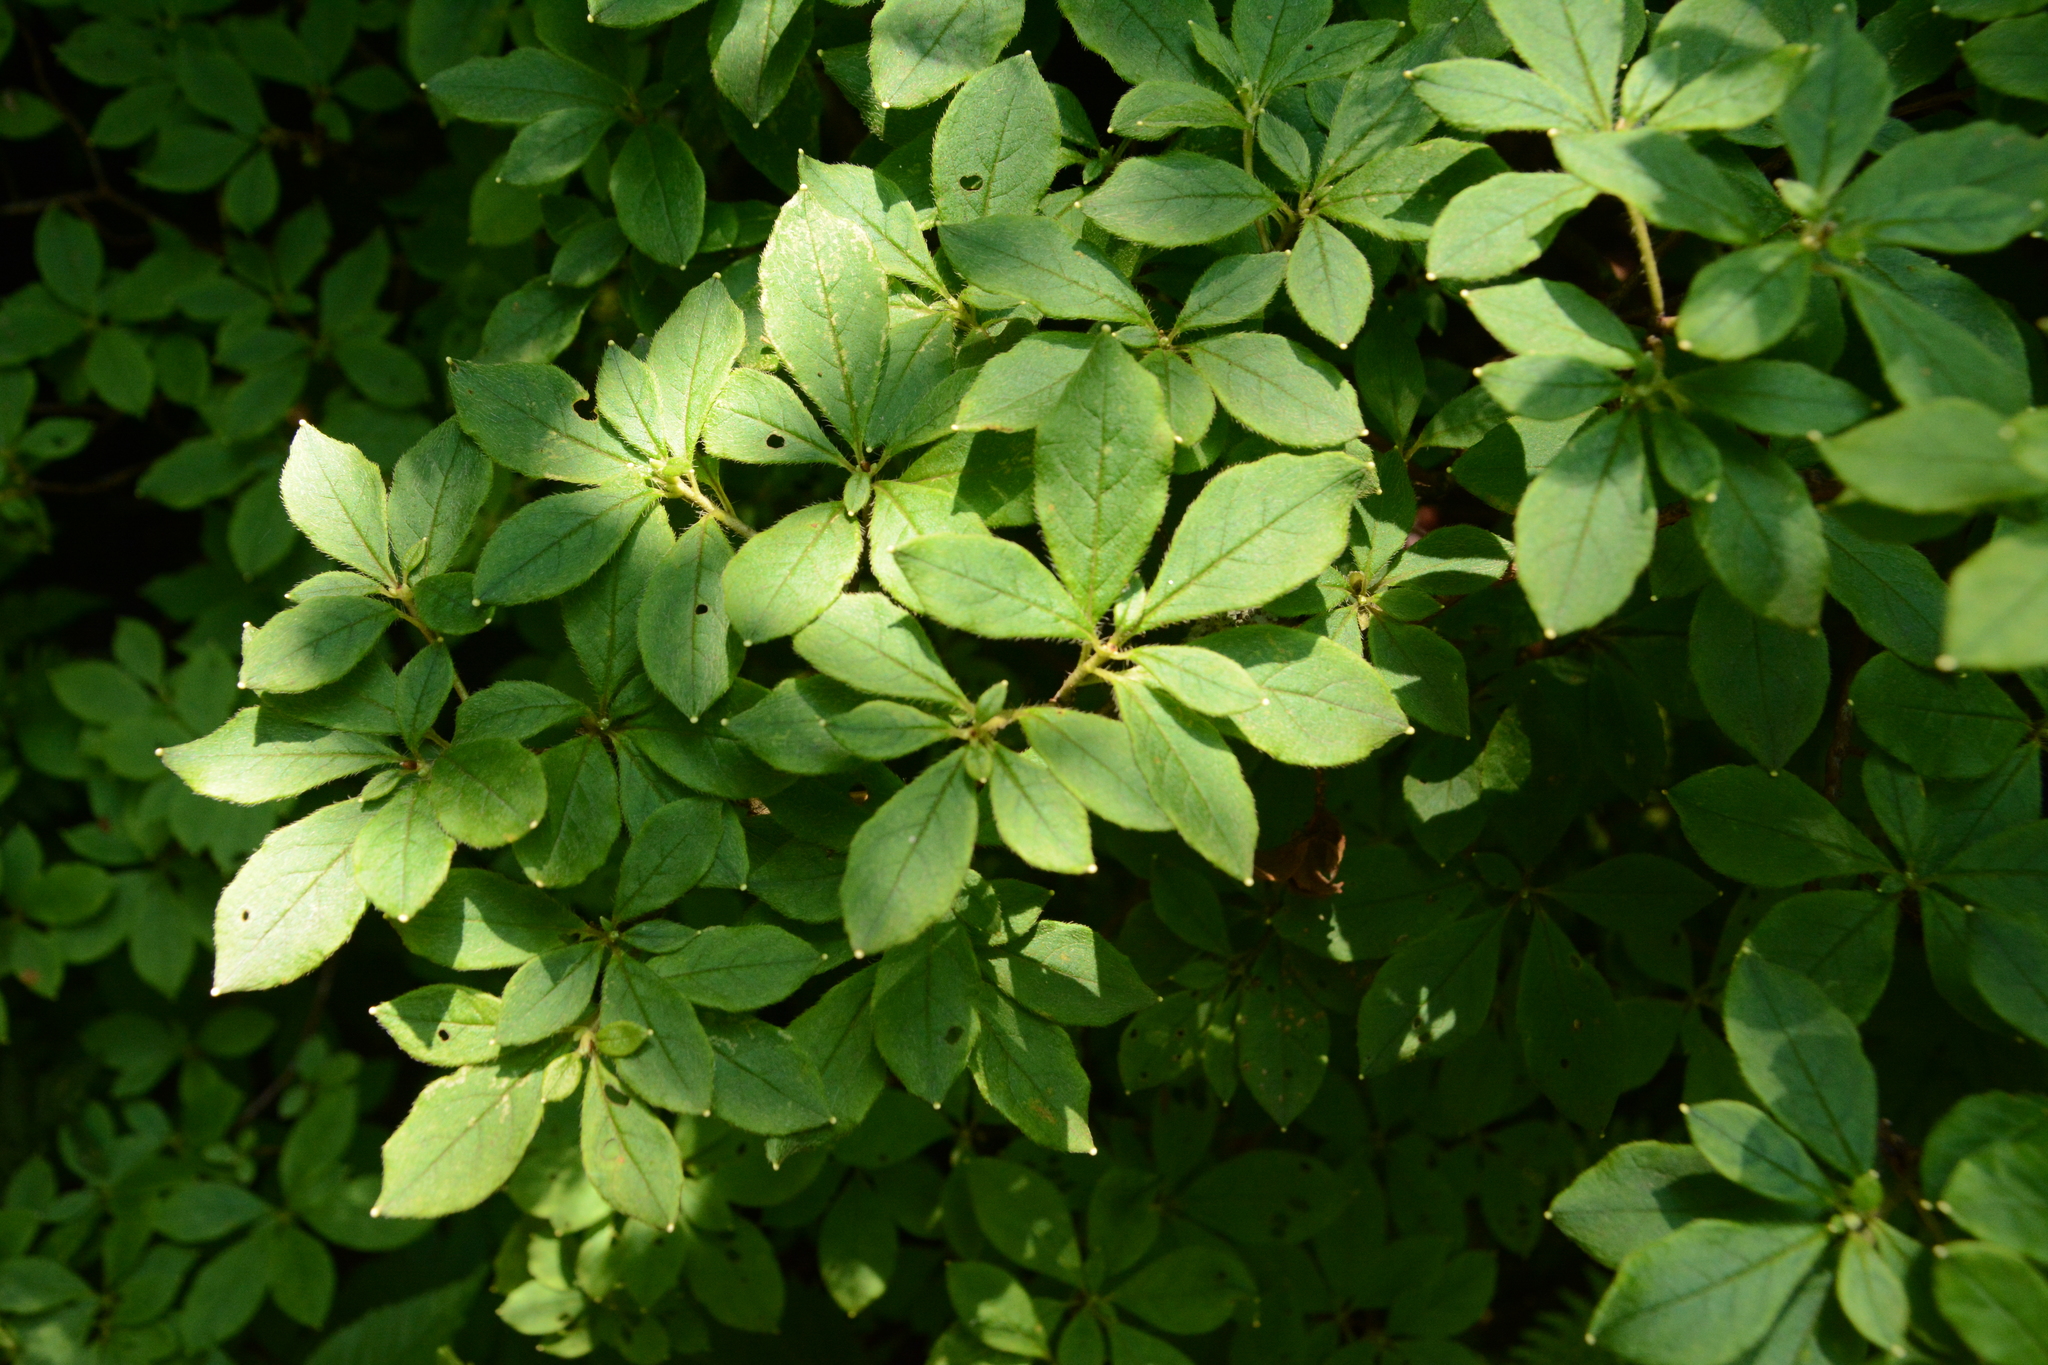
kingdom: Plantae
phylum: Tracheophyta
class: Magnoliopsida
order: Ericales
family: Ericaceae
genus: Rhododendron
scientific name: Rhododendron pilosum
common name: Hairy minniebush
